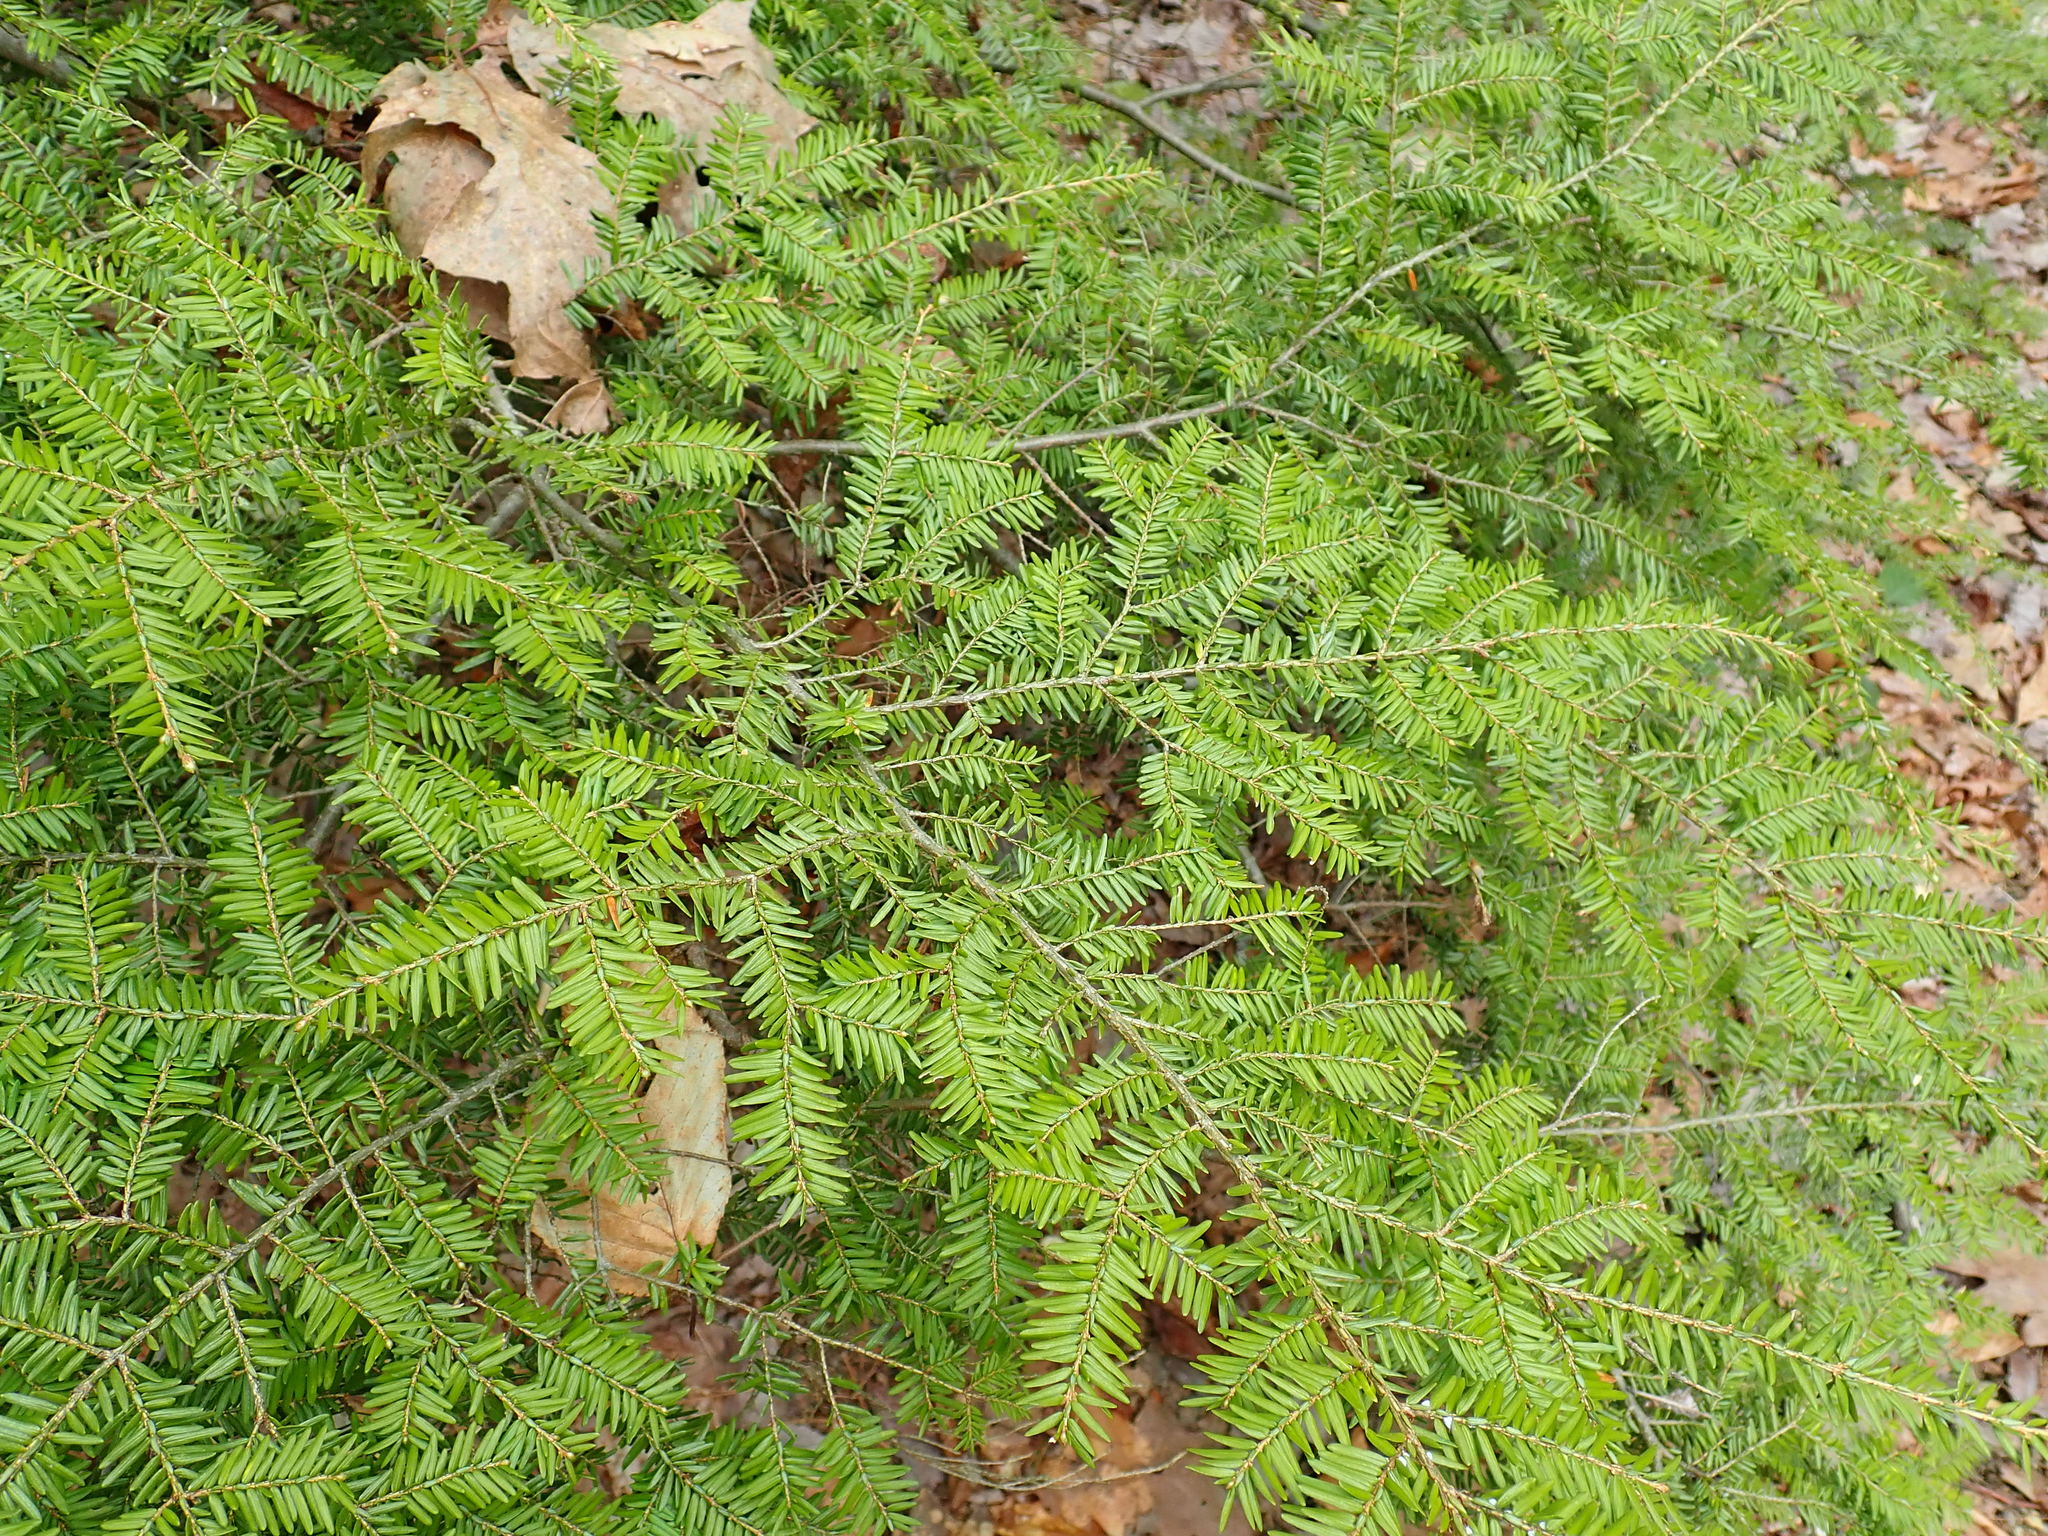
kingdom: Plantae
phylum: Tracheophyta
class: Pinopsida
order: Pinales
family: Pinaceae
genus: Tsuga
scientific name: Tsuga canadensis
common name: Eastern hemlock
